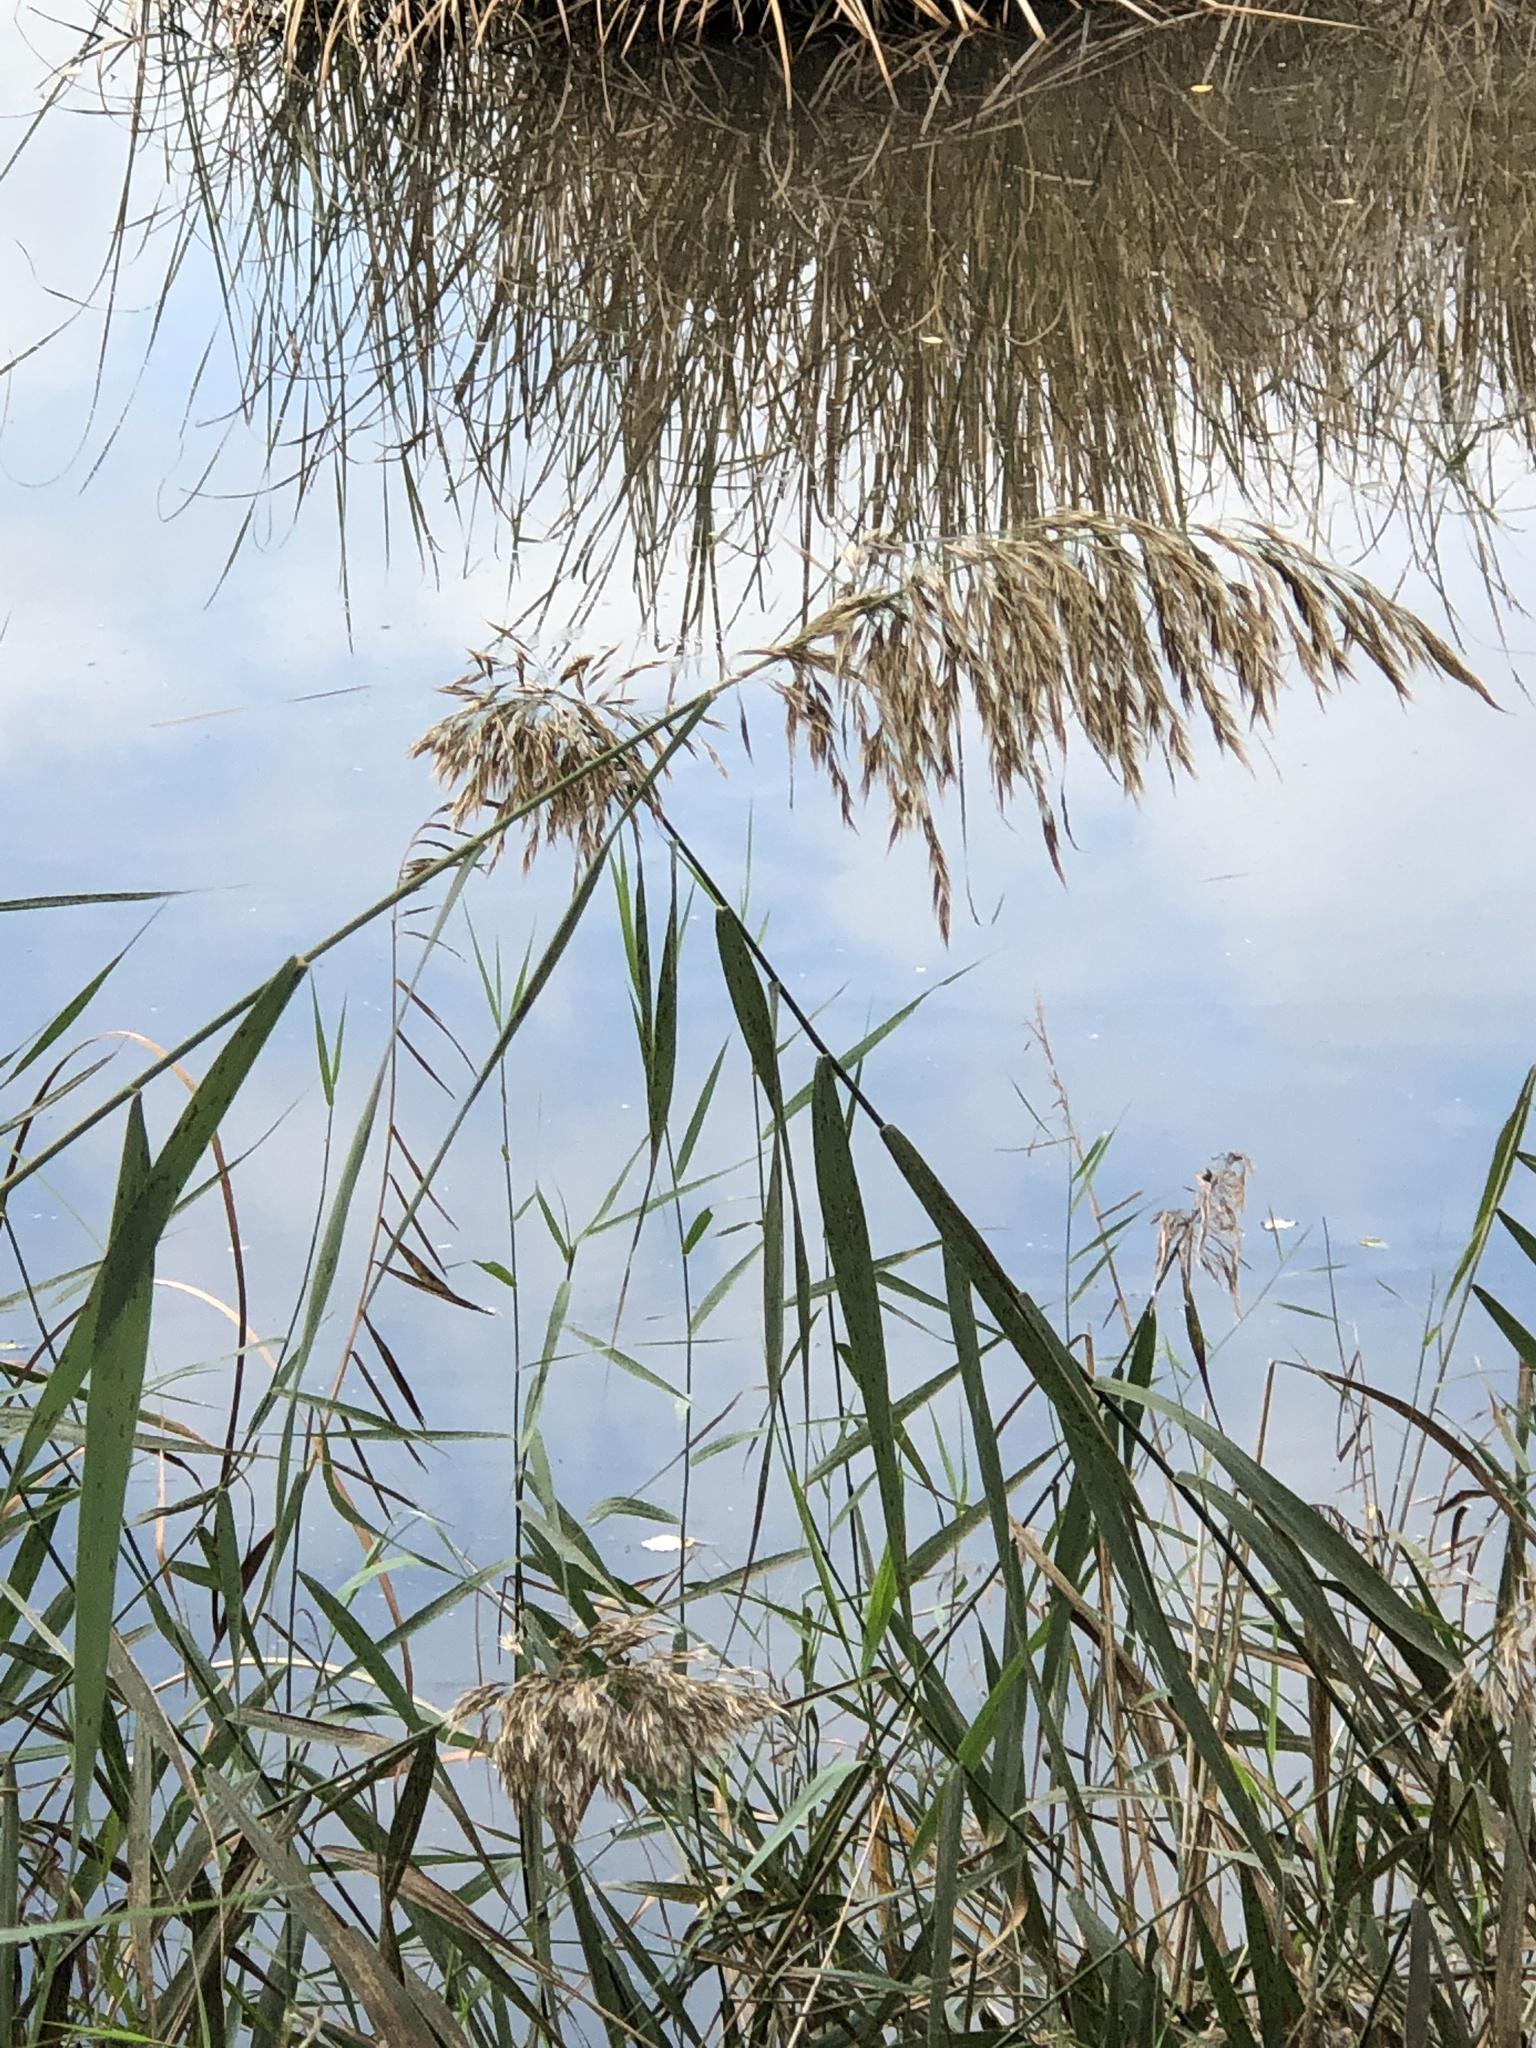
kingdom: Plantae
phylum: Tracheophyta
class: Liliopsida
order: Poales
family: Poaceae
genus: Phragmites
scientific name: Phragmites australis
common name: Common reed
